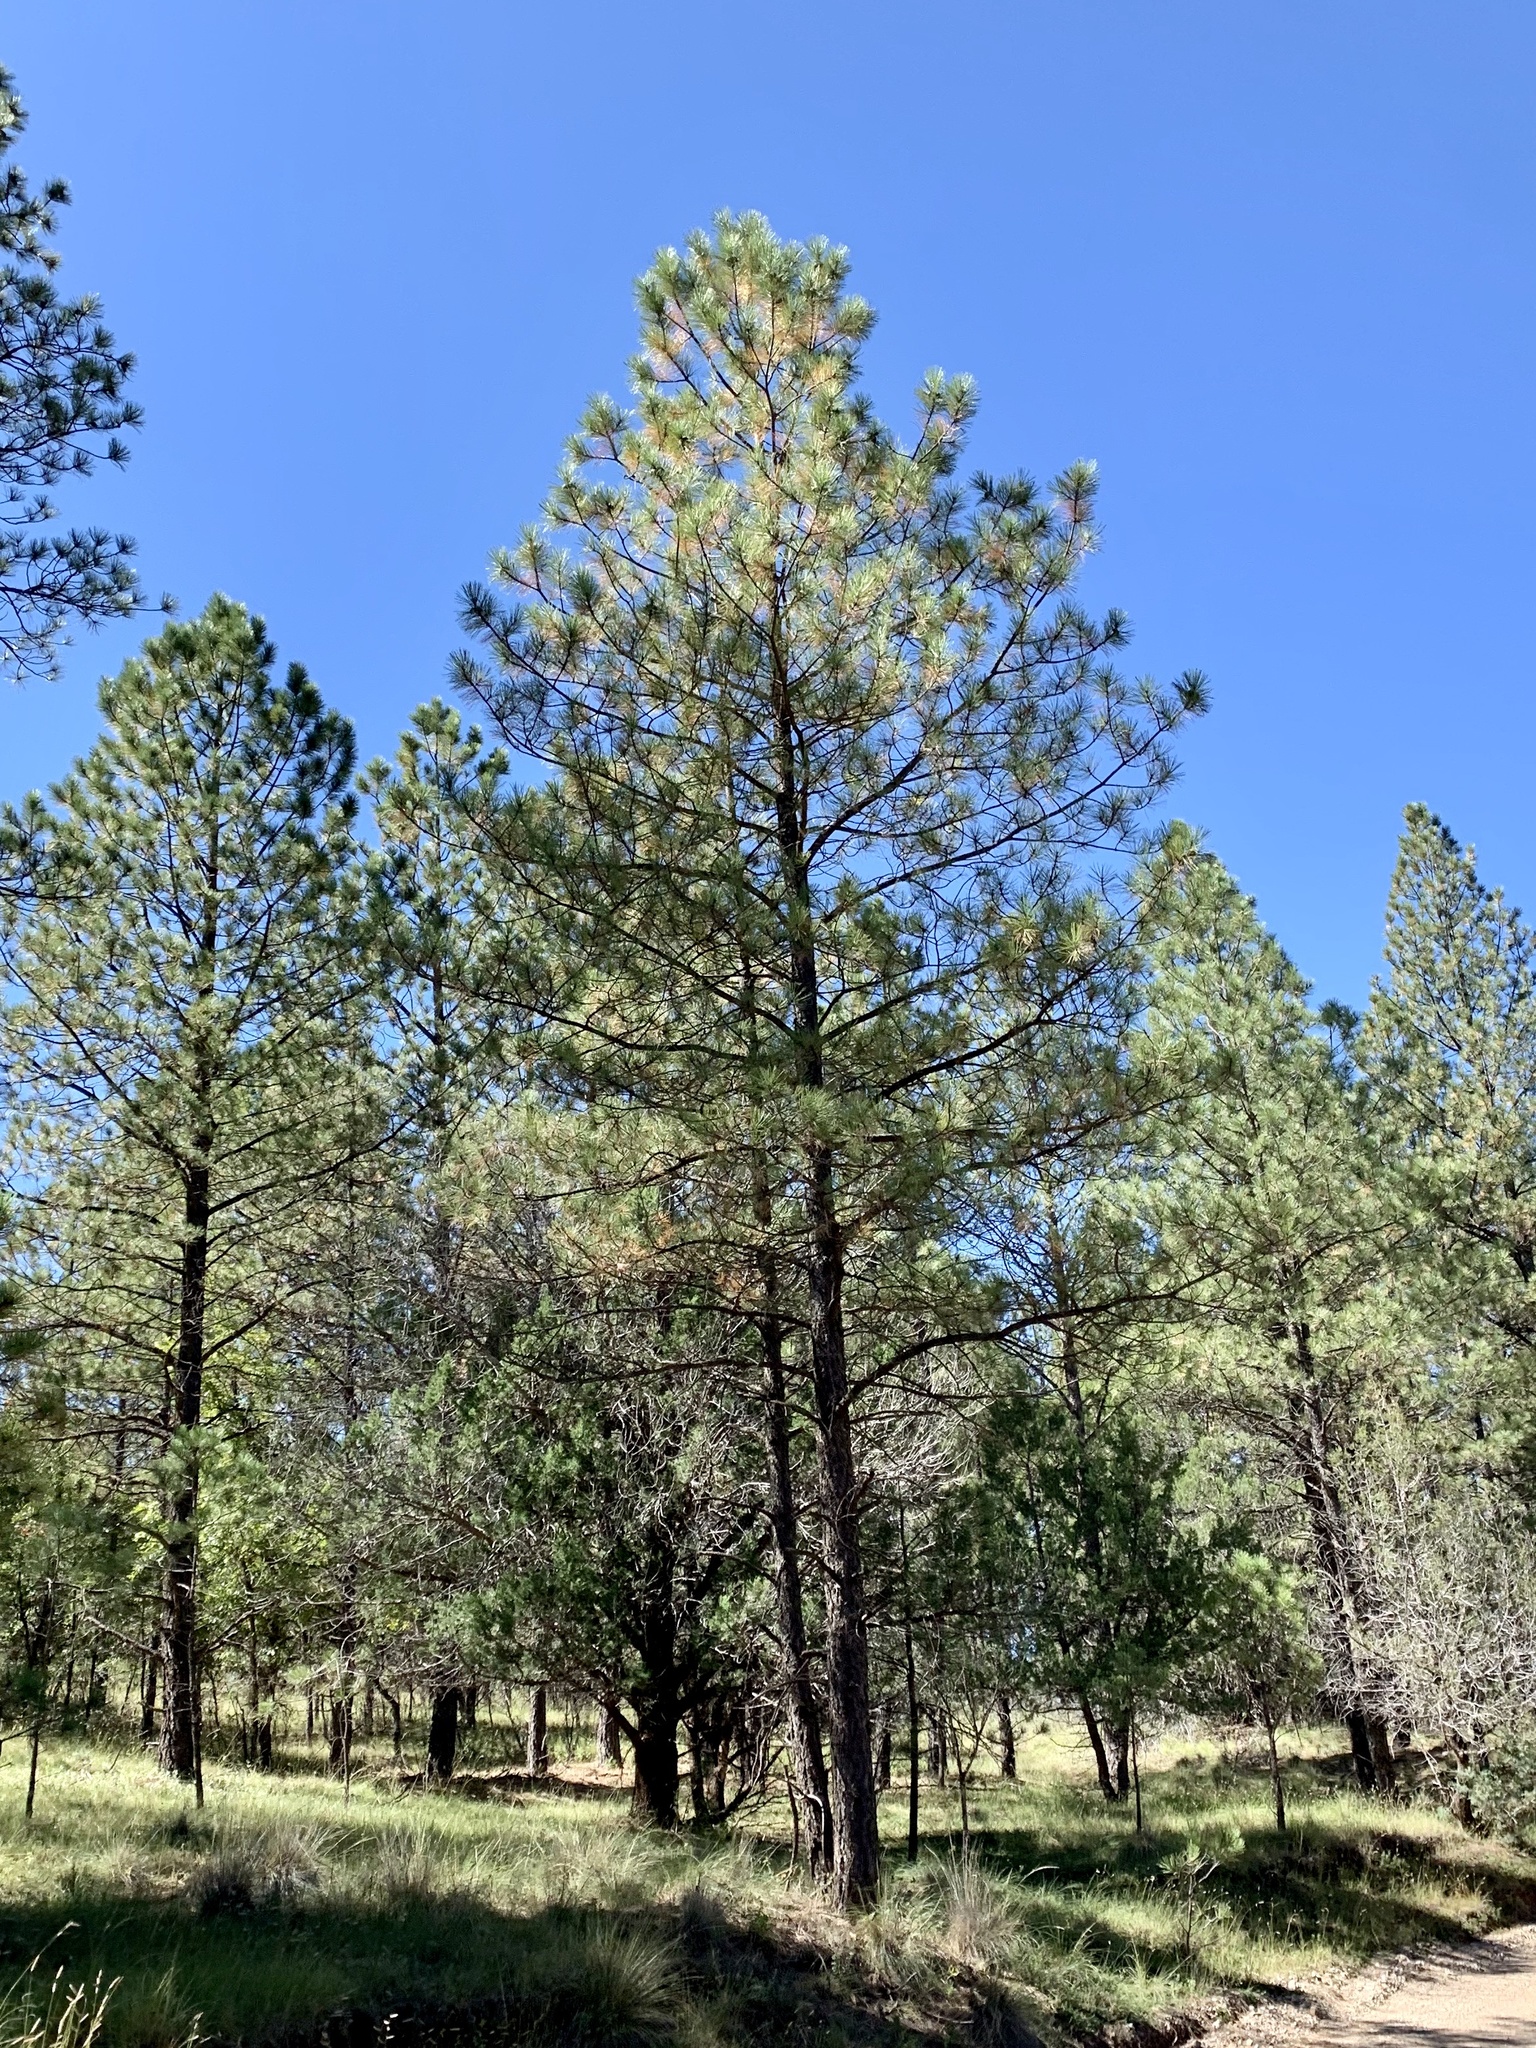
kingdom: Plantae
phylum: Tracheophyta
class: Pinopsida
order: Pinales
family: Pinaceae
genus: Pinus
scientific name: Pinus ponderosa
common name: Western yellow-pine
